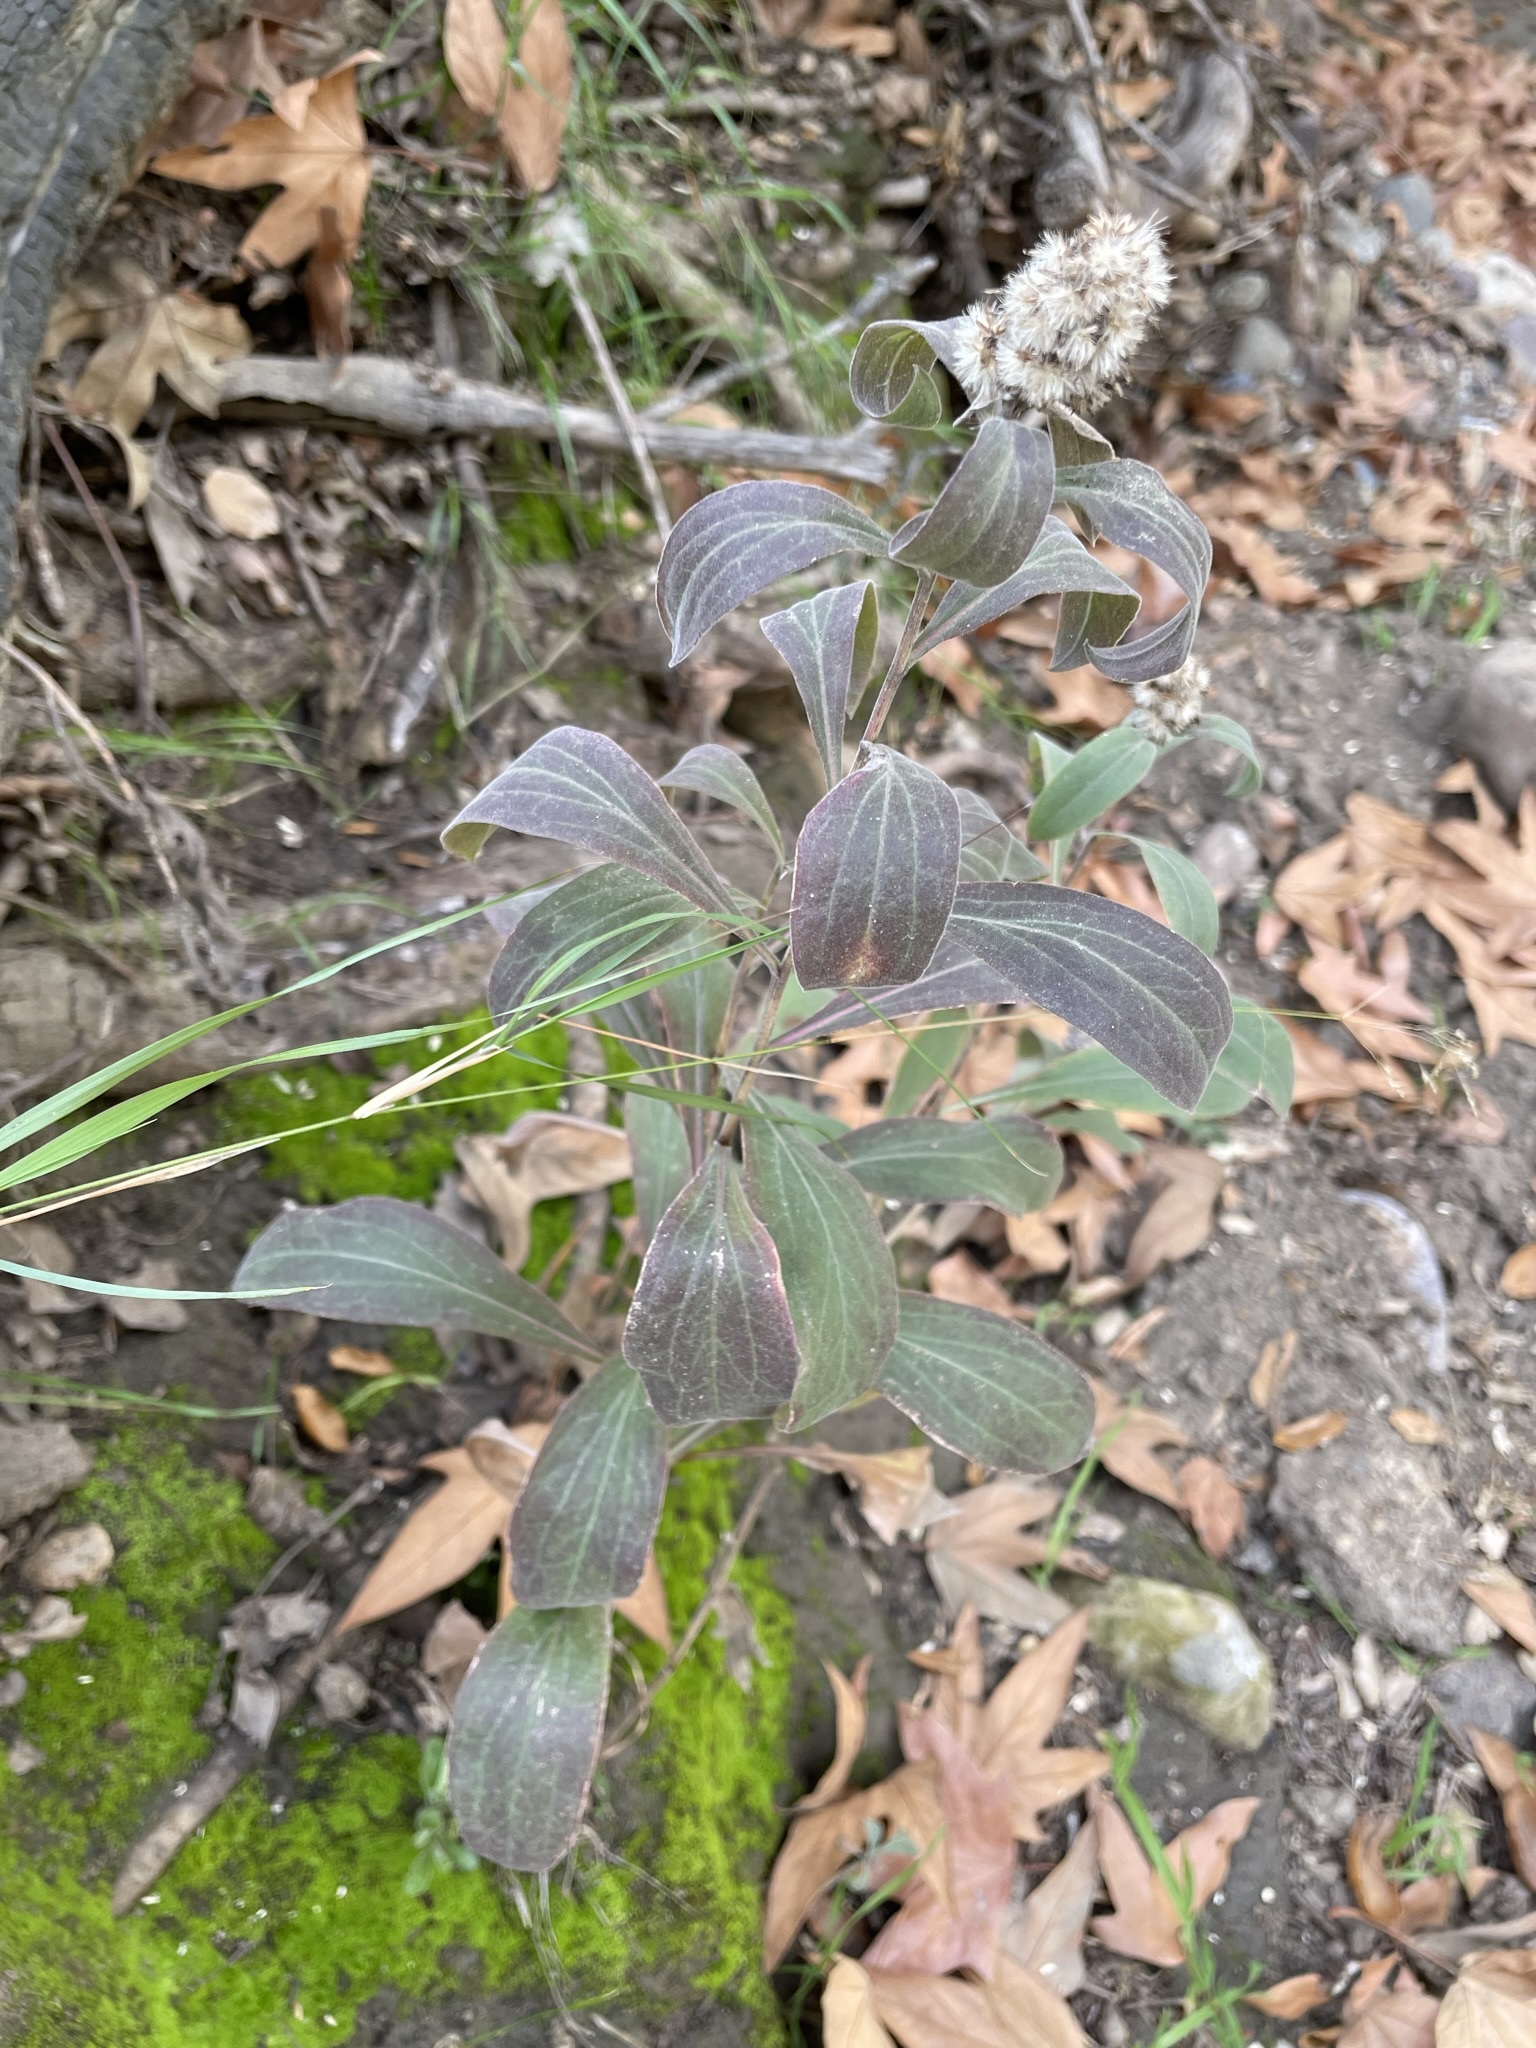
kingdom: Plantae
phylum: Tracheophyta
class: Magnoliopsida
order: Asterales
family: Asteraceae
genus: Solidago
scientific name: Solidago velutina
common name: Three-nerve goldenrod
